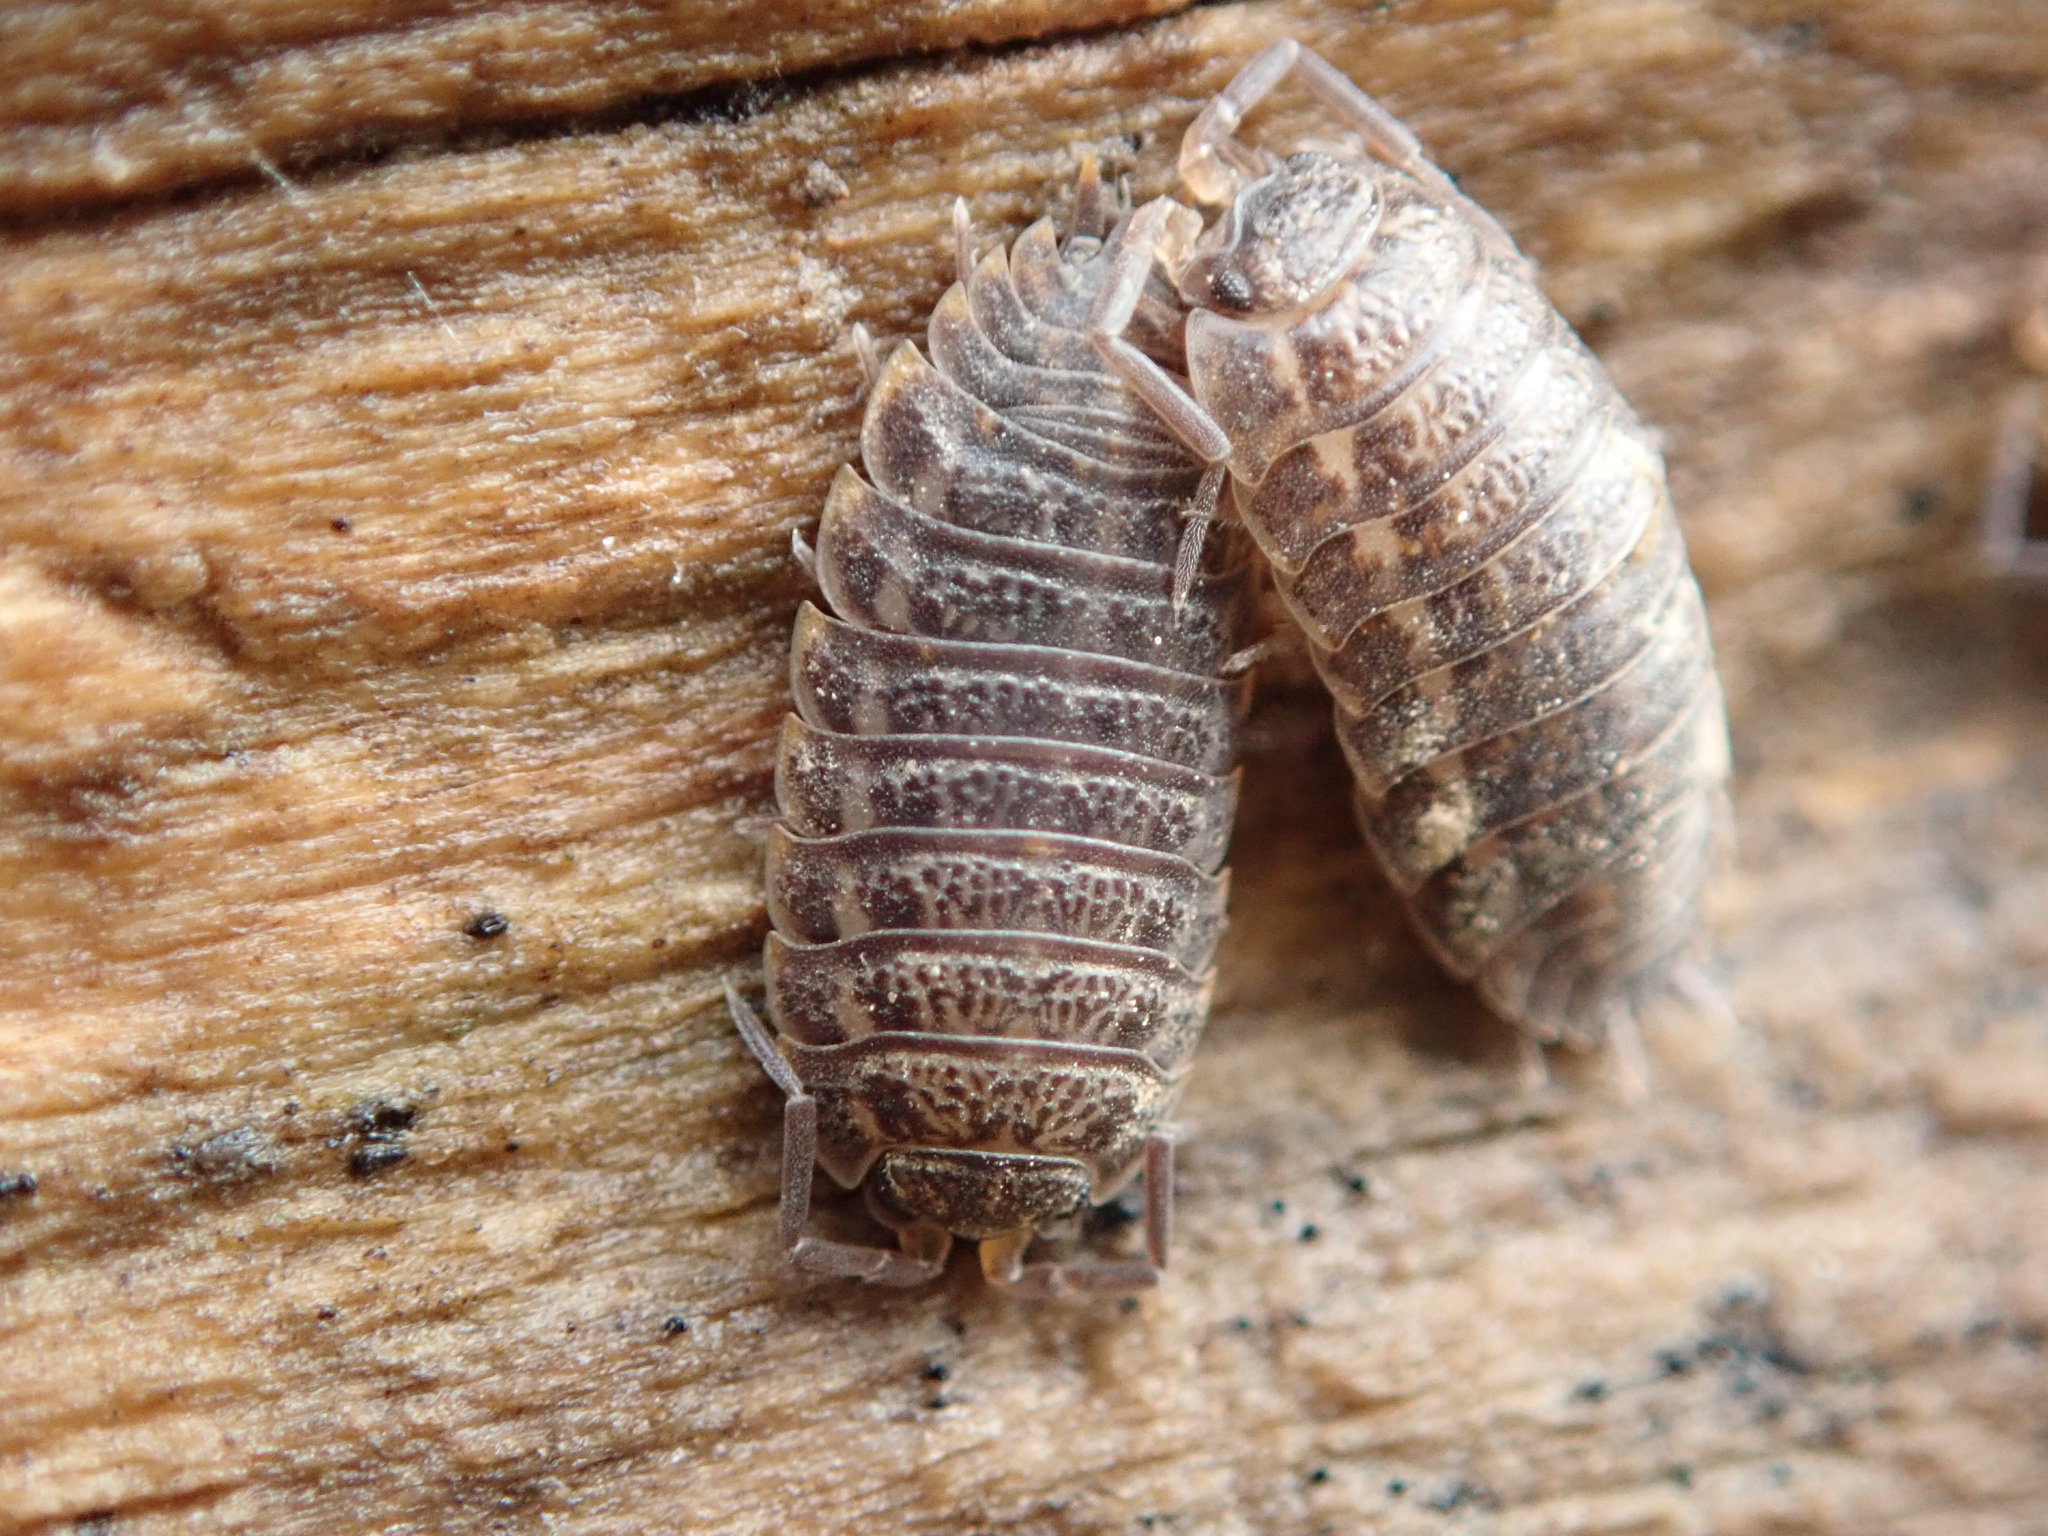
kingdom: Animalia
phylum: Arthropoda
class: Malacostraca
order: Isopoda
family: Trachelipodidae
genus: Trachelipus
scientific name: Trachelipus rathkii
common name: Isopod
